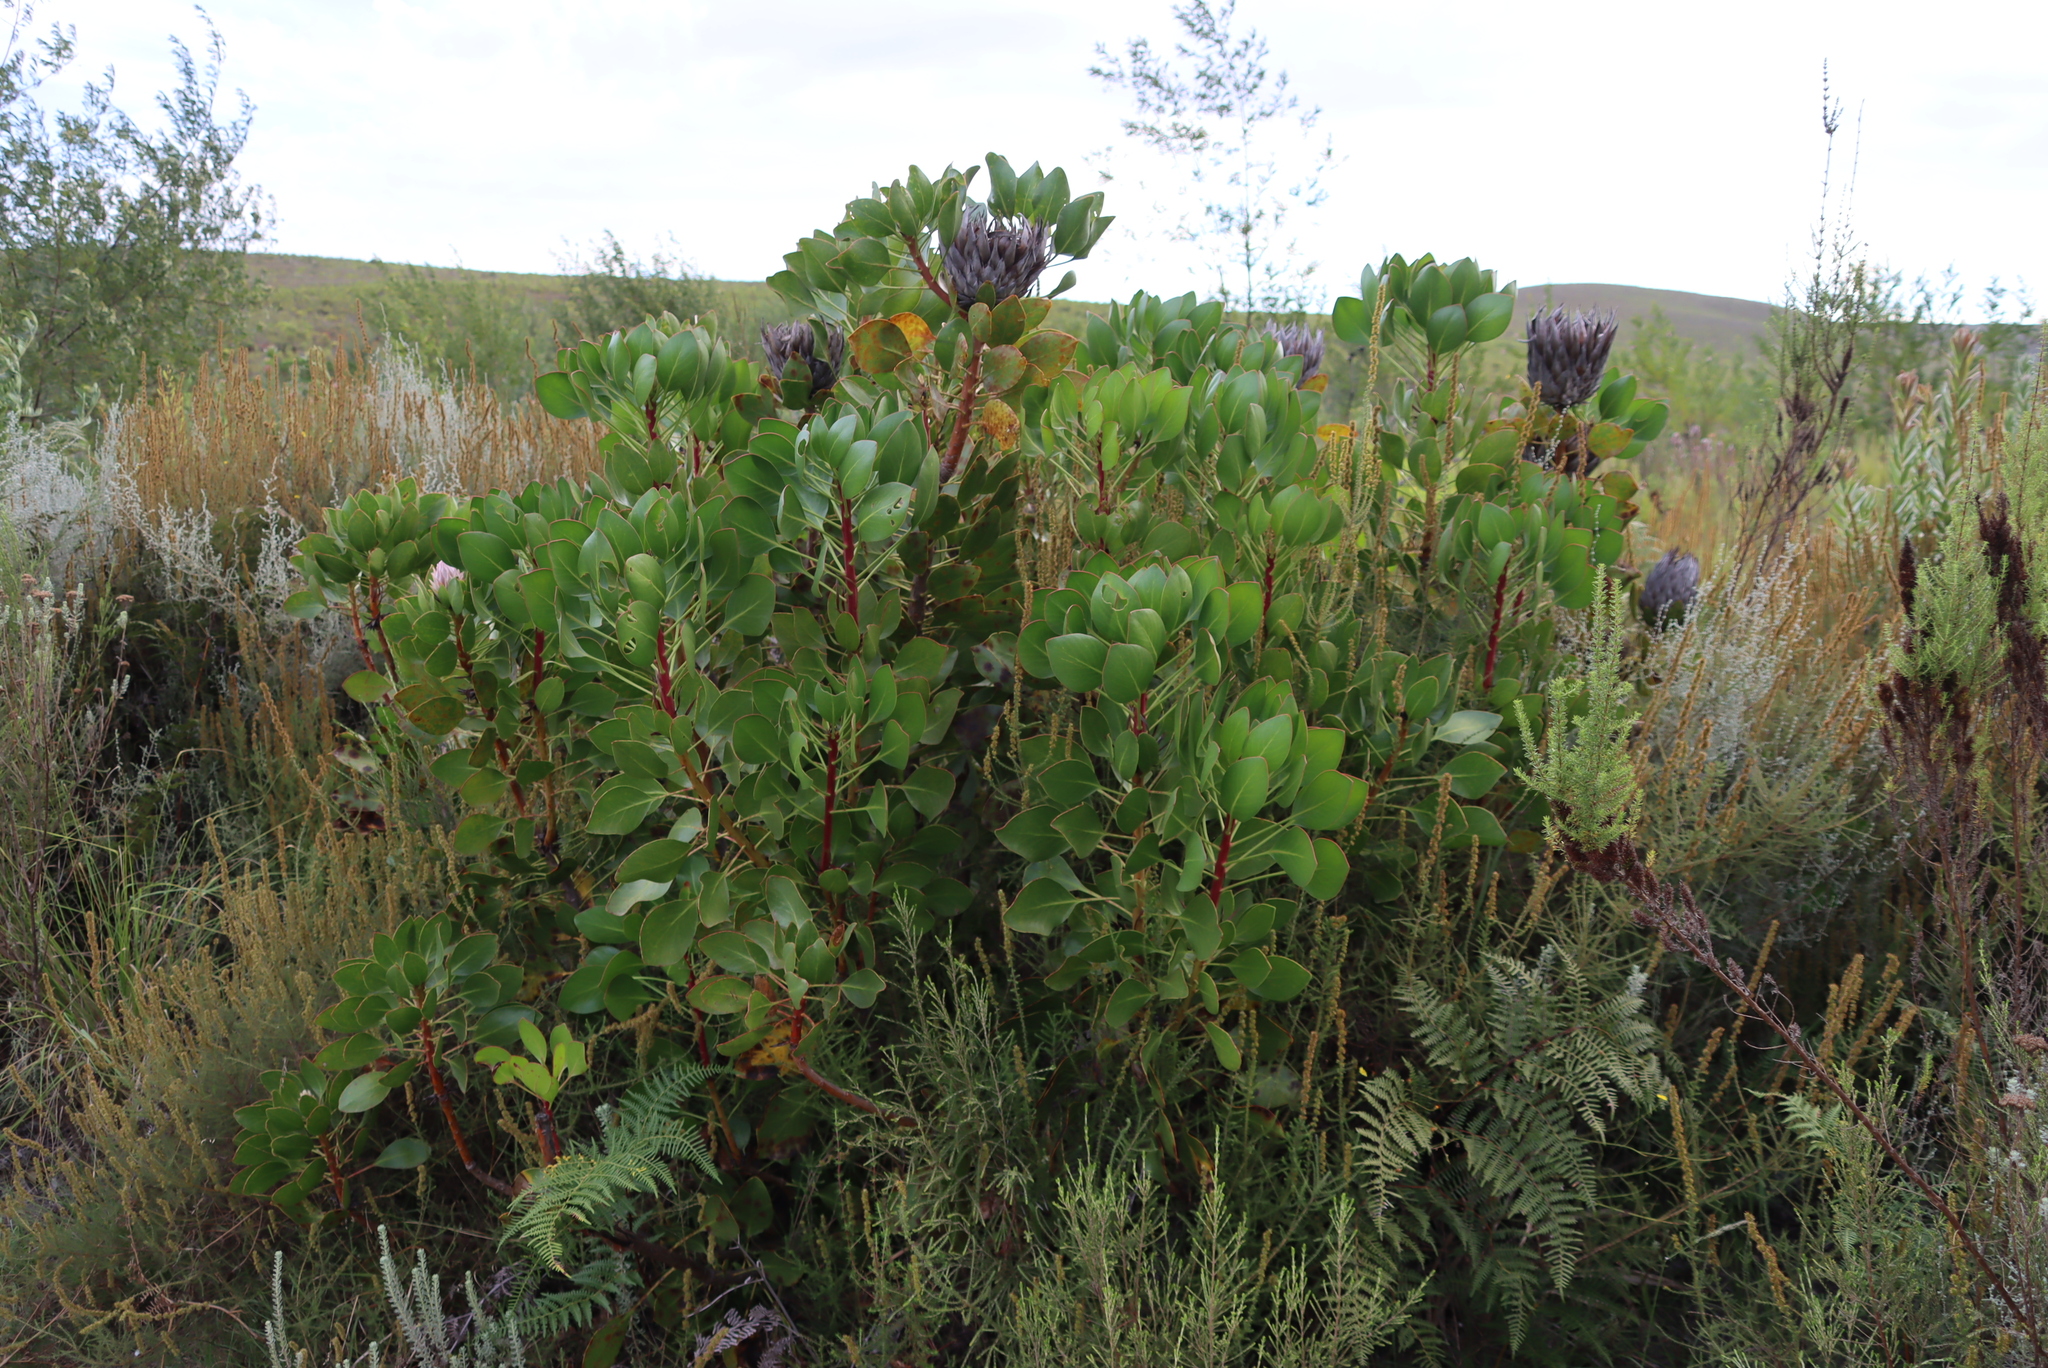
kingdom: Plantae
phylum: Tracheophyta
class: Magnoliopsida
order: Proteales
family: Proteaceae
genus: Protea
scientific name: Protea cynaroides
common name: King protea
